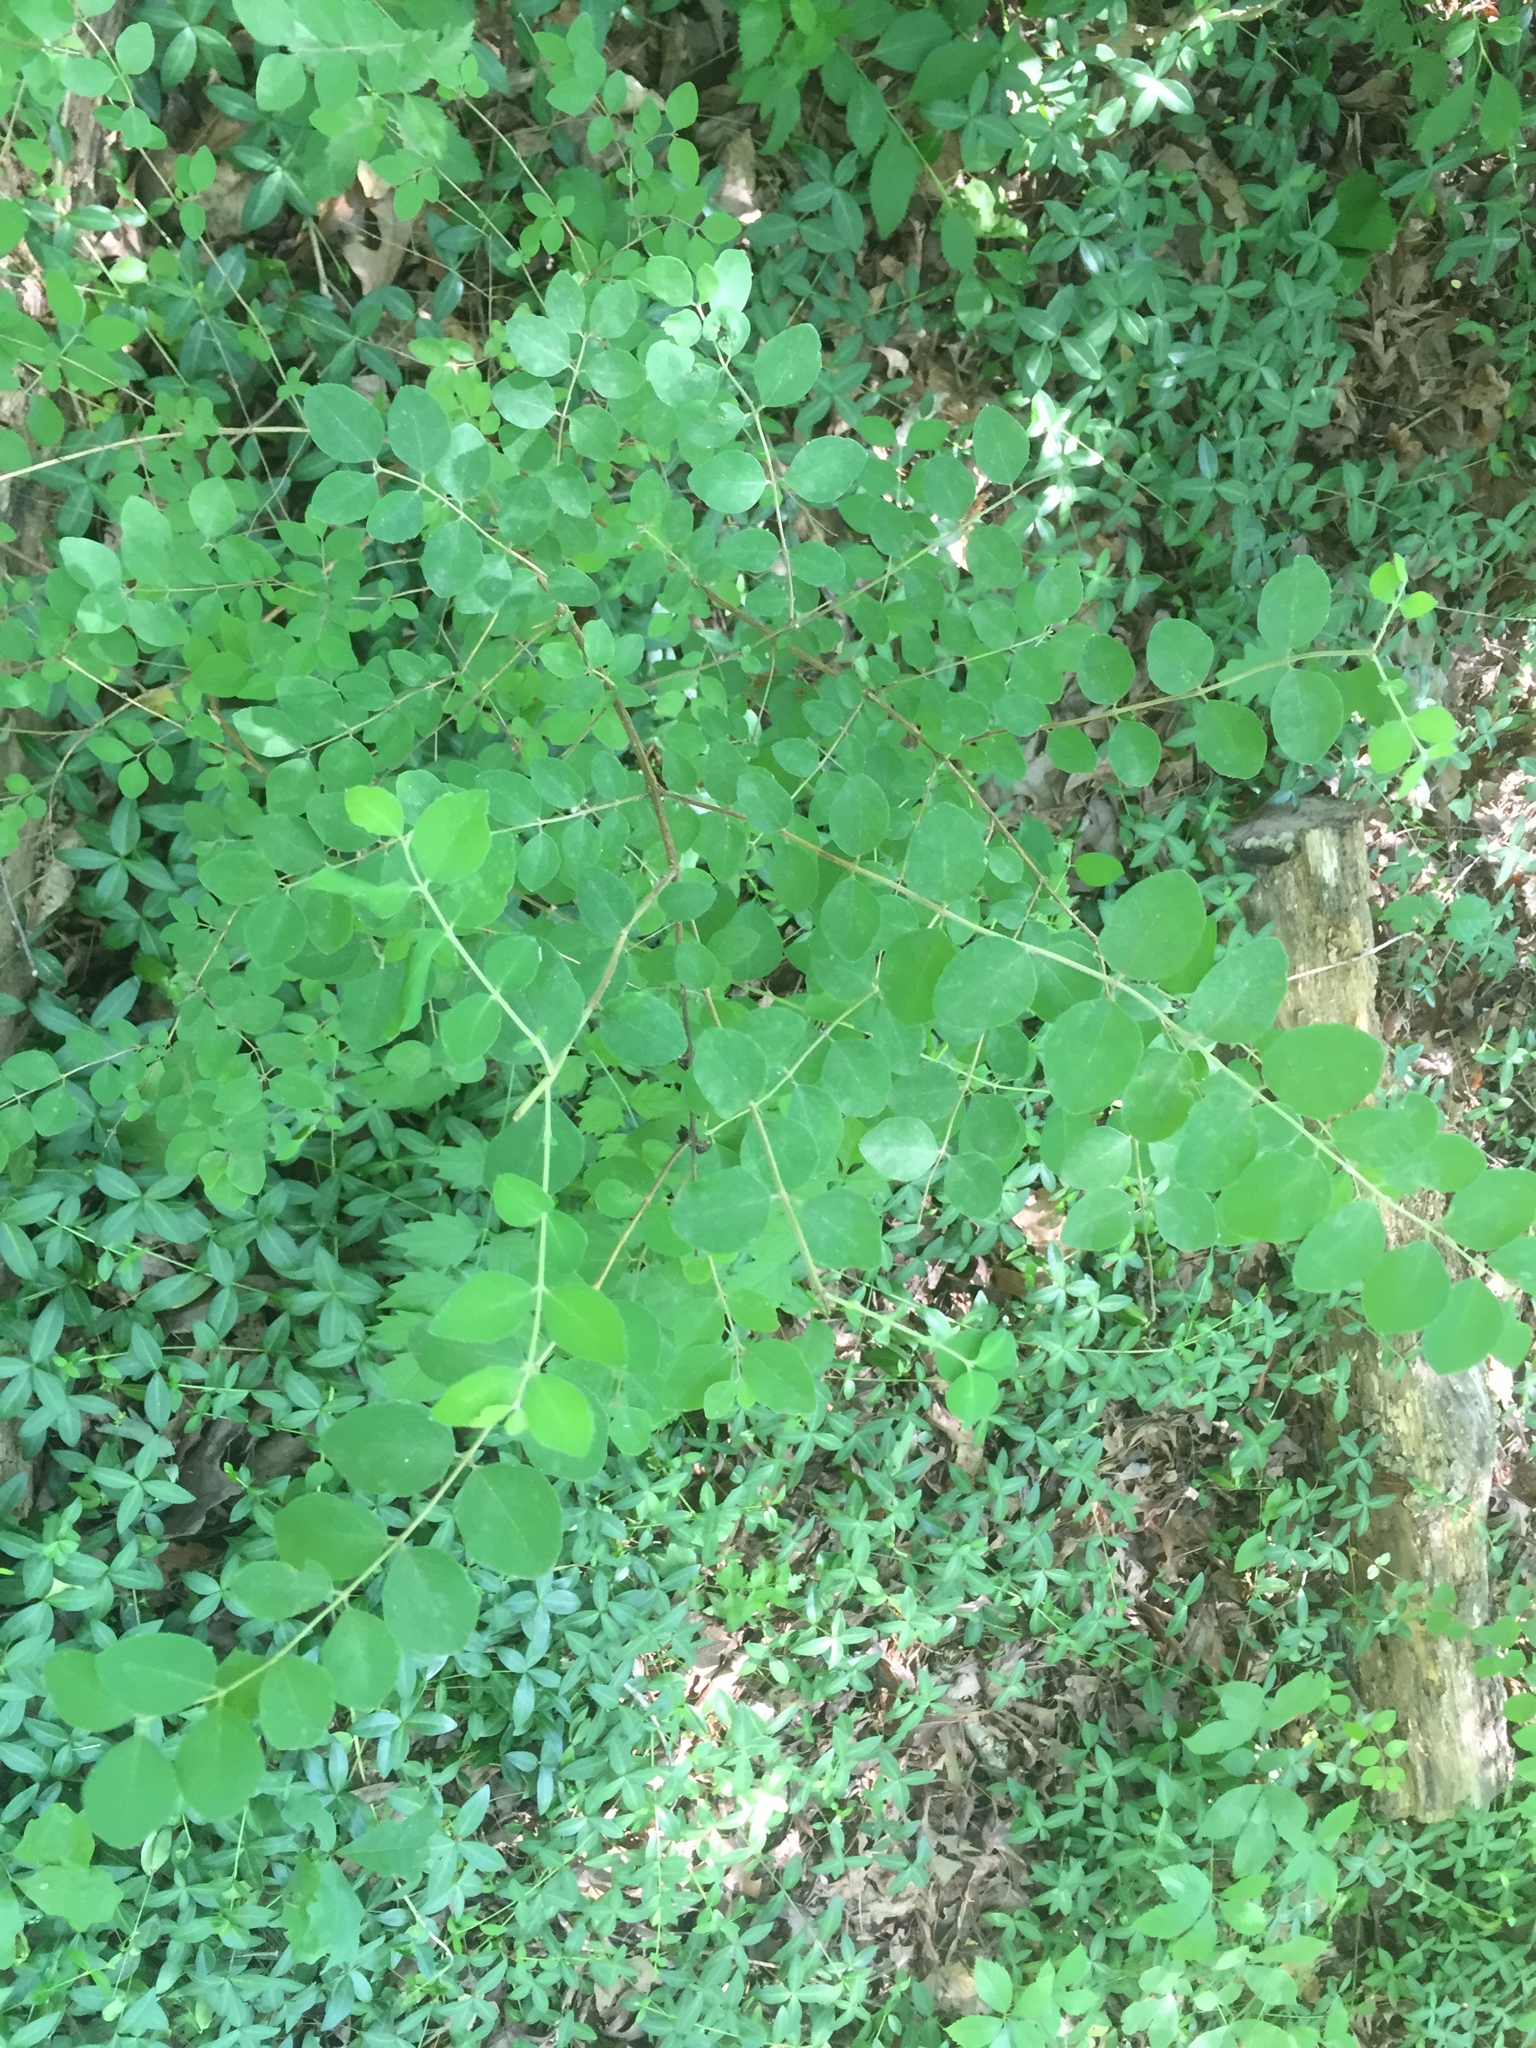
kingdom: Plantae
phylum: Tracheophyta
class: Magnoliopsida
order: Dipsacales
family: Caprifoliaceae
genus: Symphoricarpos
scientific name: Symphoricarpos orbiculatus
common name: Coralberry
